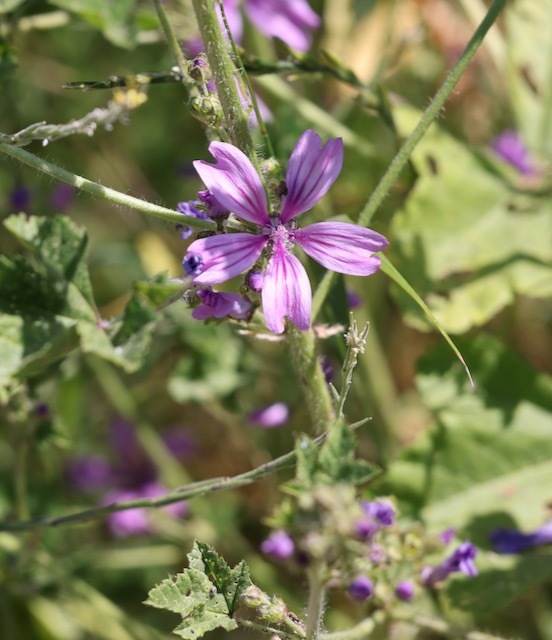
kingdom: Plantae
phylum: Tracheophyta
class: Magnoliopsida
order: Malvales
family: Malvaceae
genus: Malva
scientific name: Malva sylvestris
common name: Common mallow
